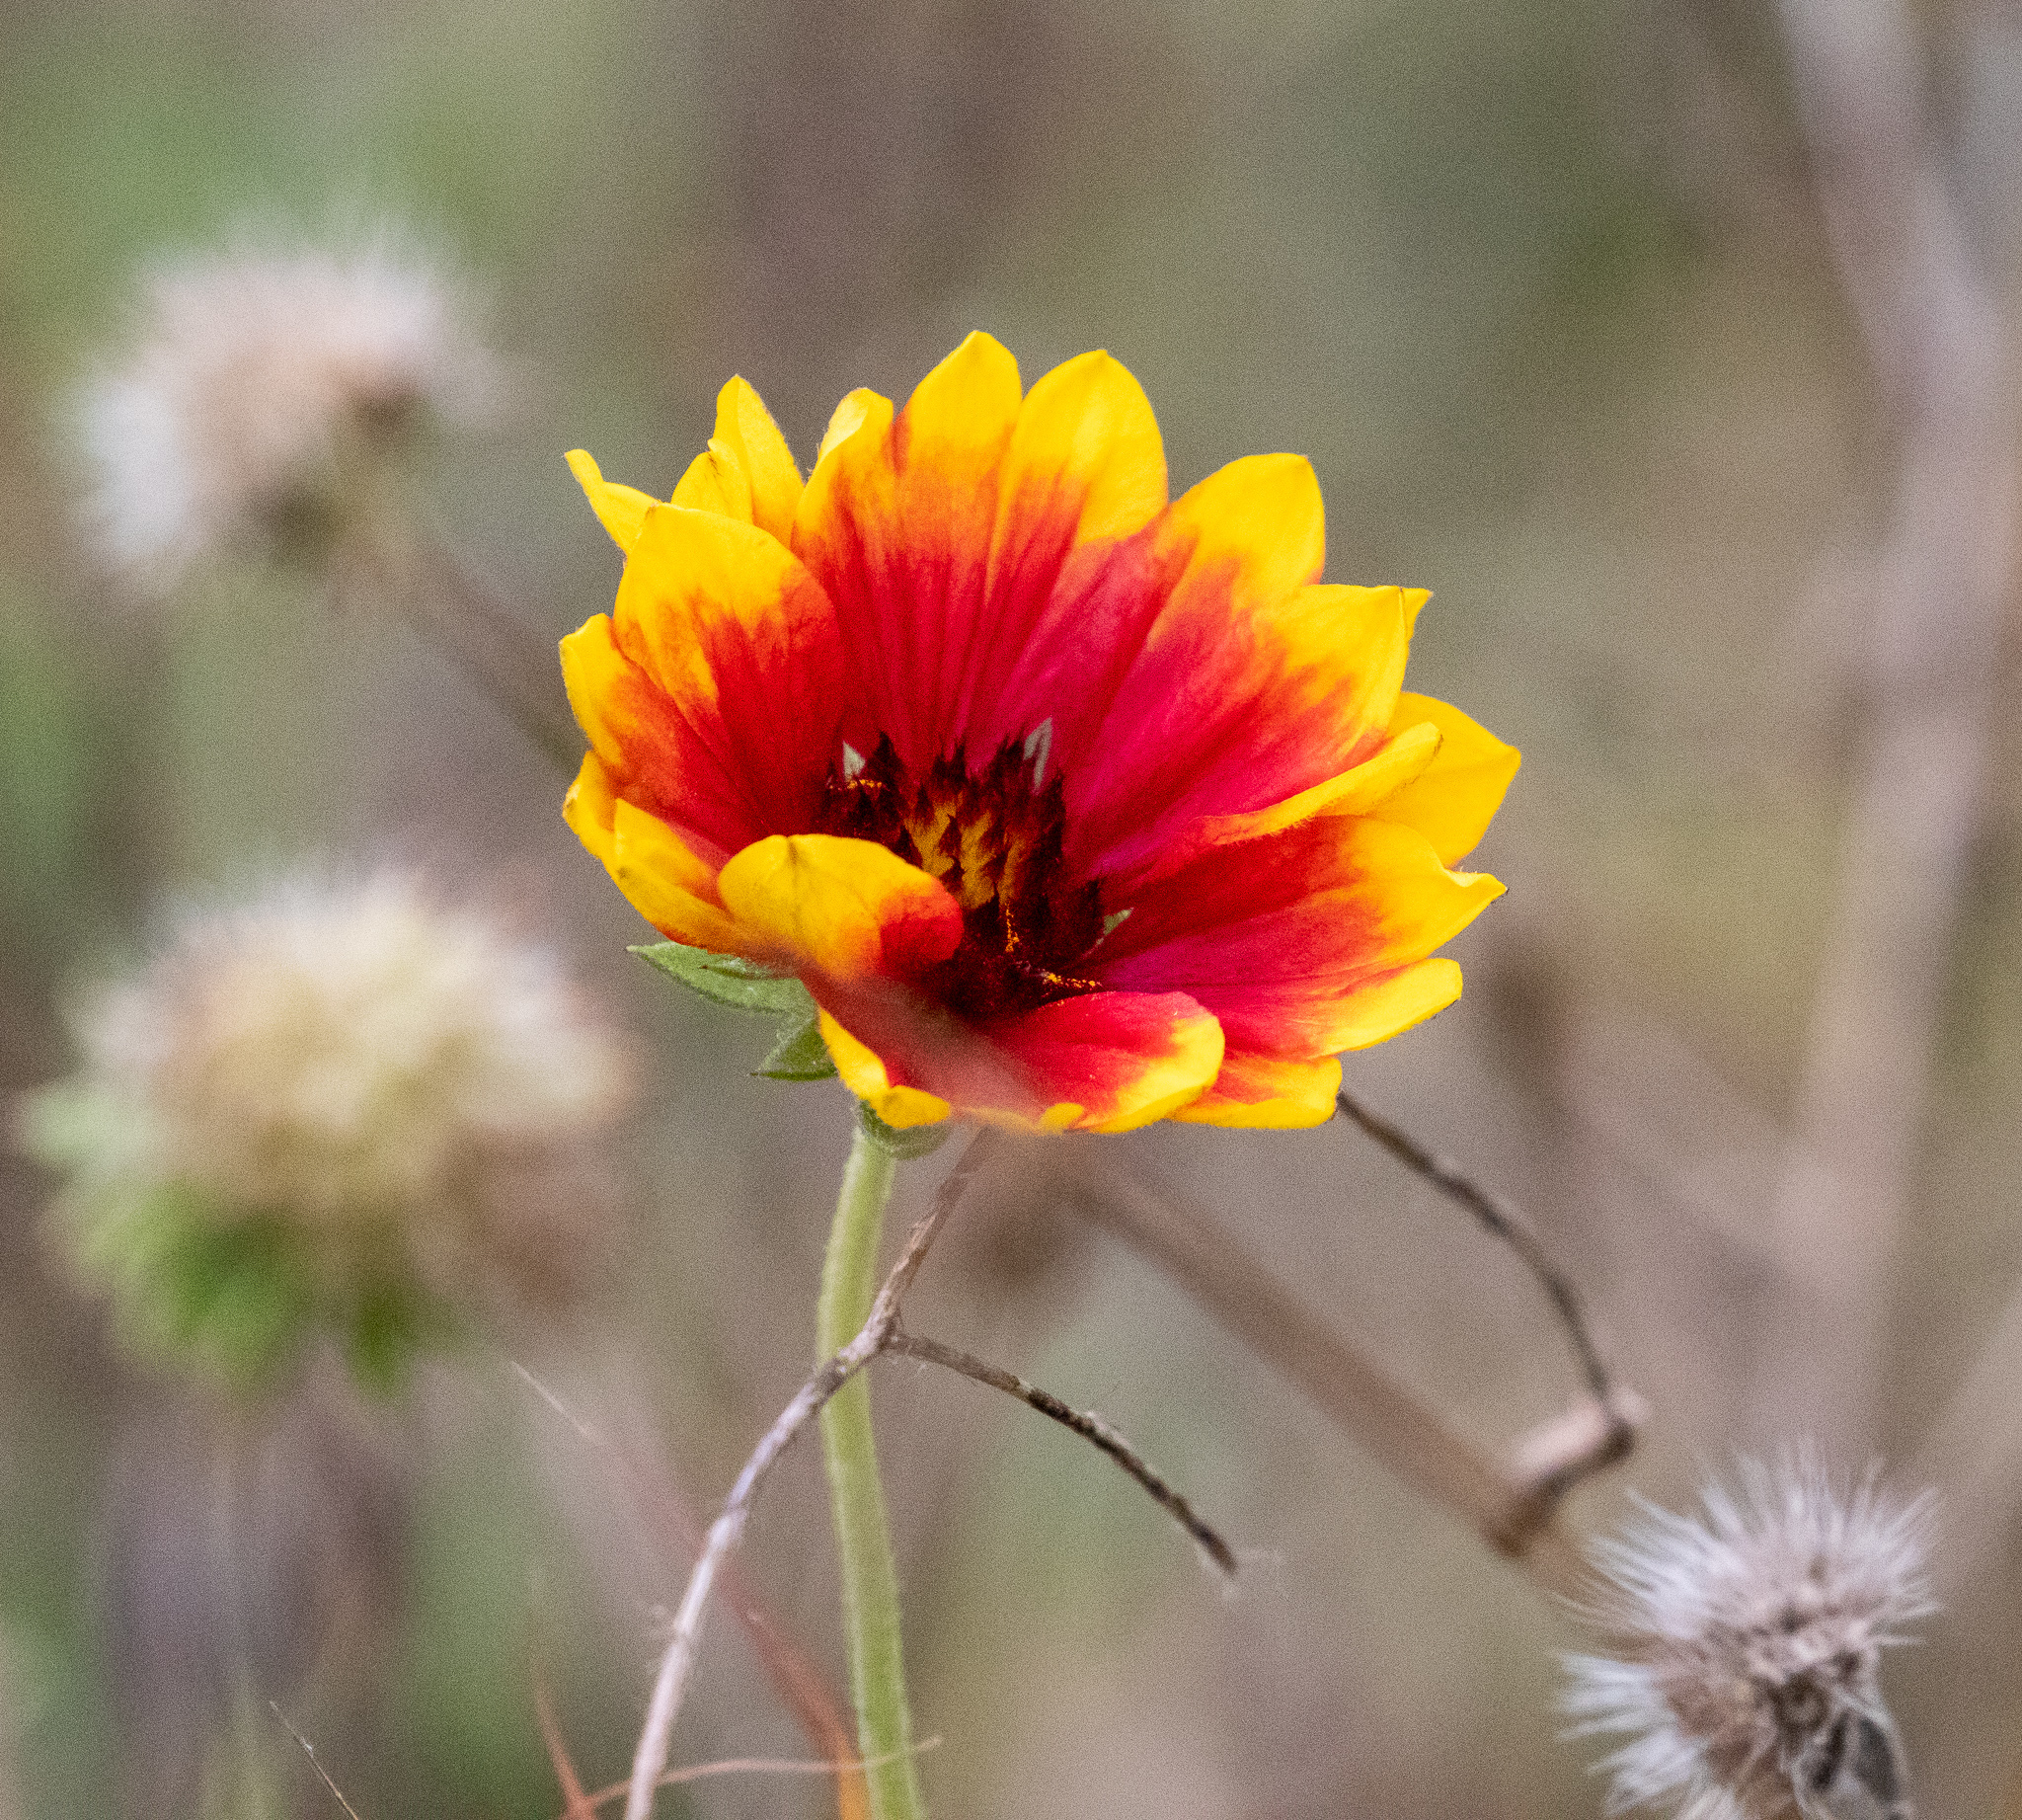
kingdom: Plantae
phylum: Tracheophyta
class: Magnoliopsida
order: Asterales
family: Asteraceae
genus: Gaillardia
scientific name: Gaillardia pulchella
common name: Firewheel
